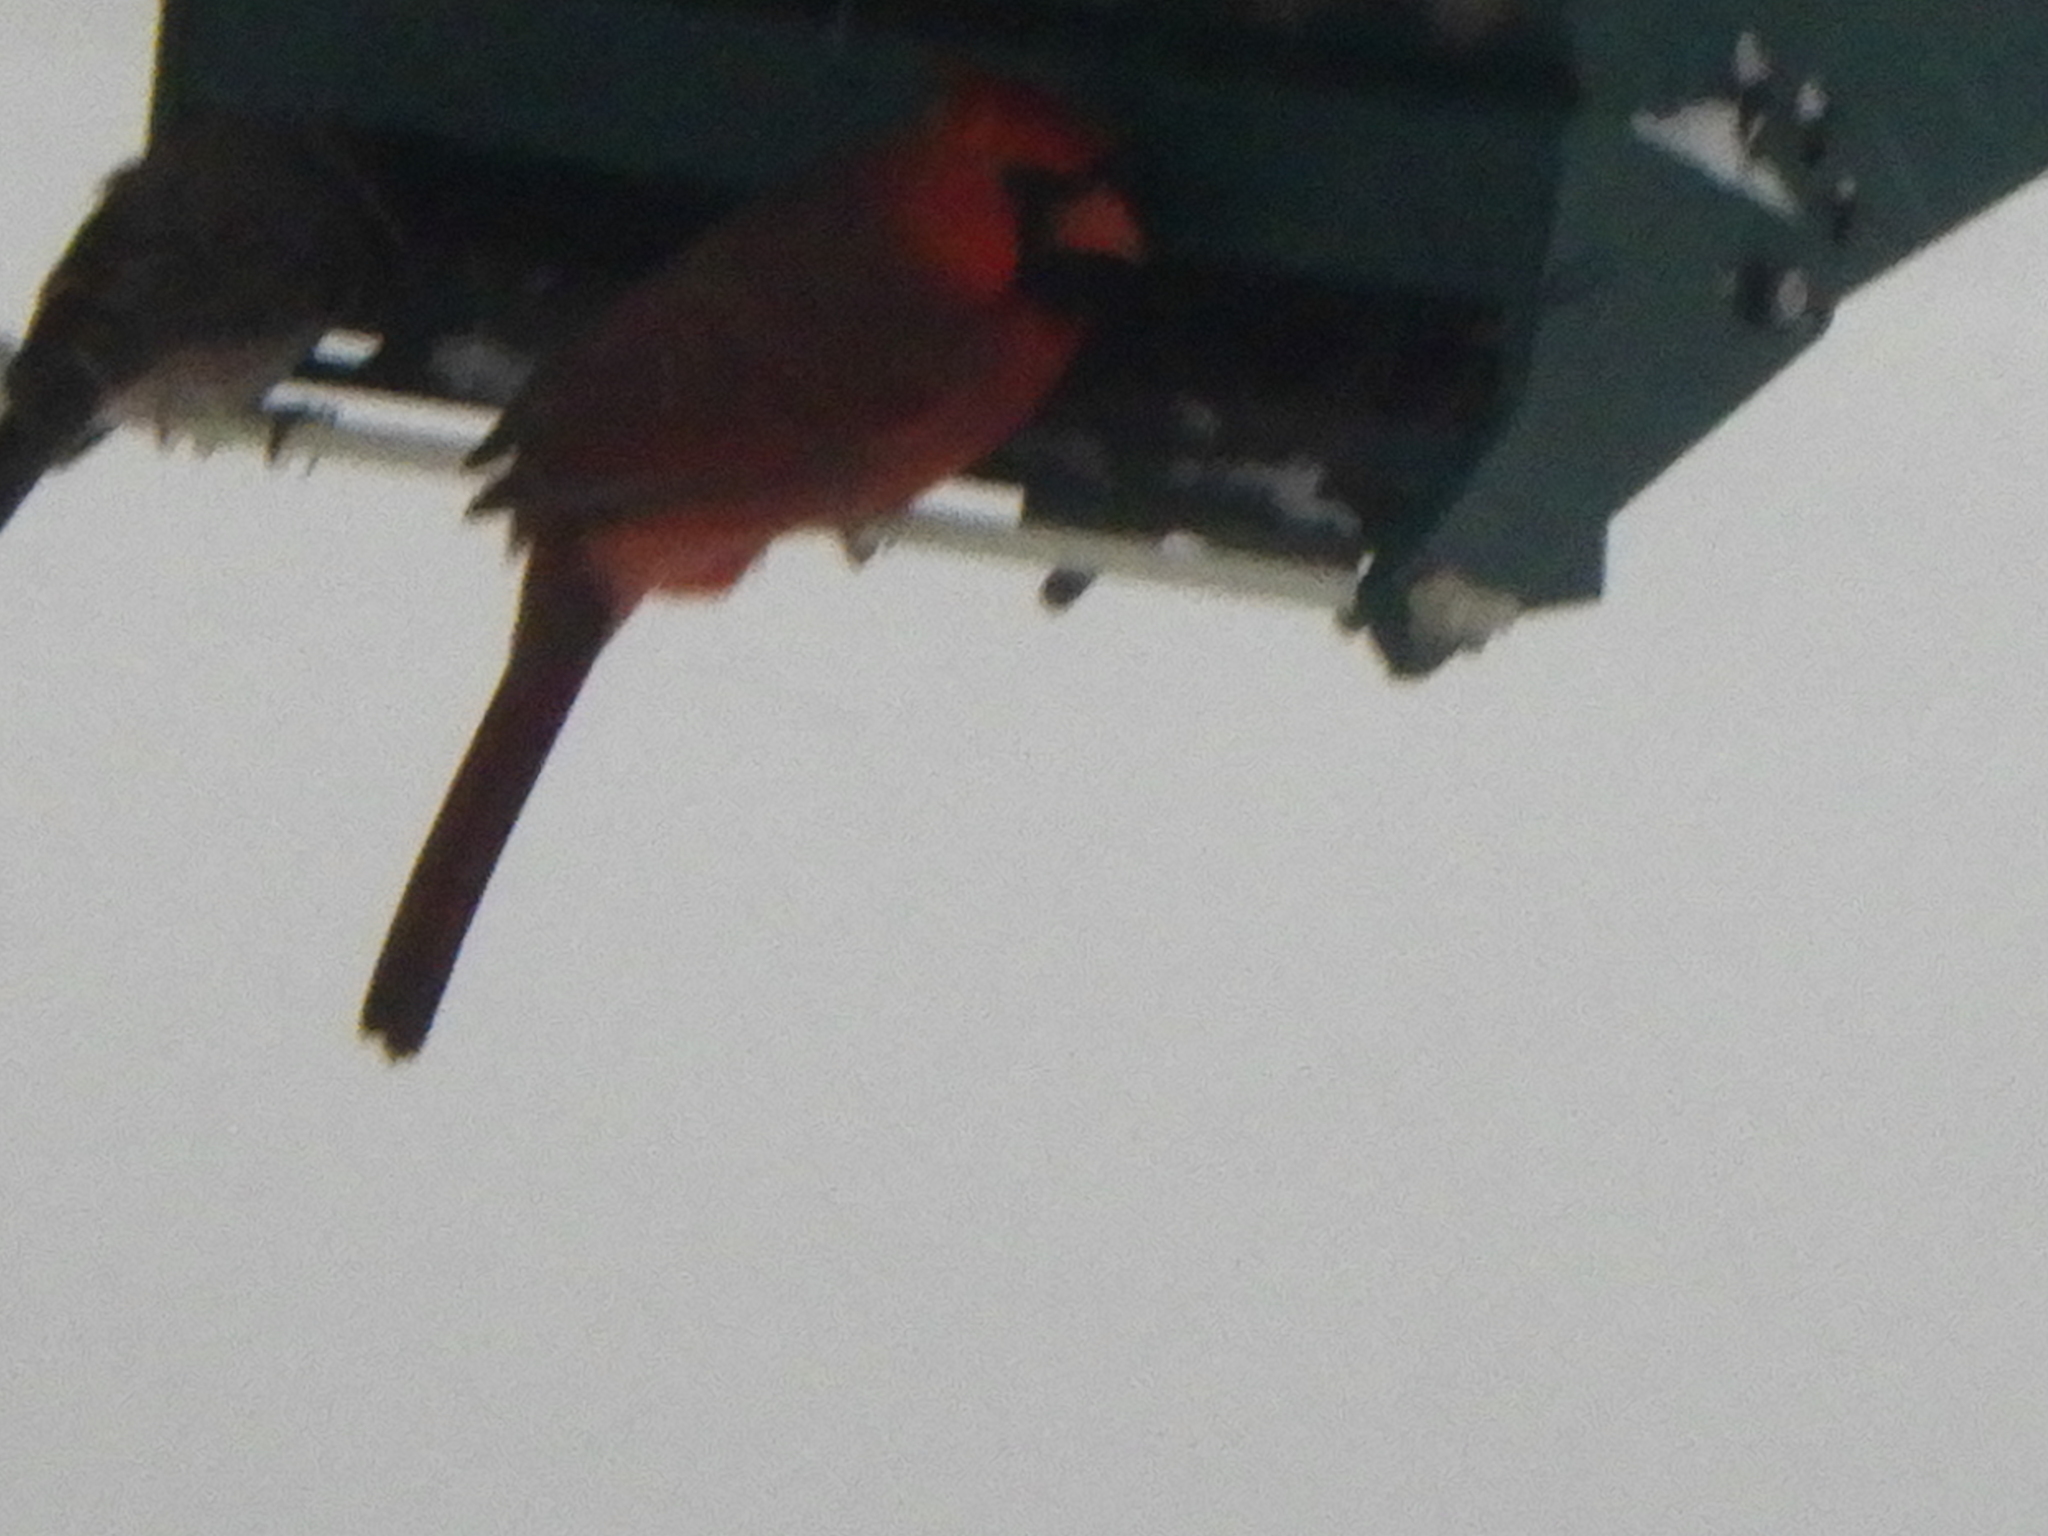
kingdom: Animalia
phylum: Chordata
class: Aves
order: Passeriformes
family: Cardinalidae
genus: Cardinalis
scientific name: Cardinalis cardinalis
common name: Northern cardinal
